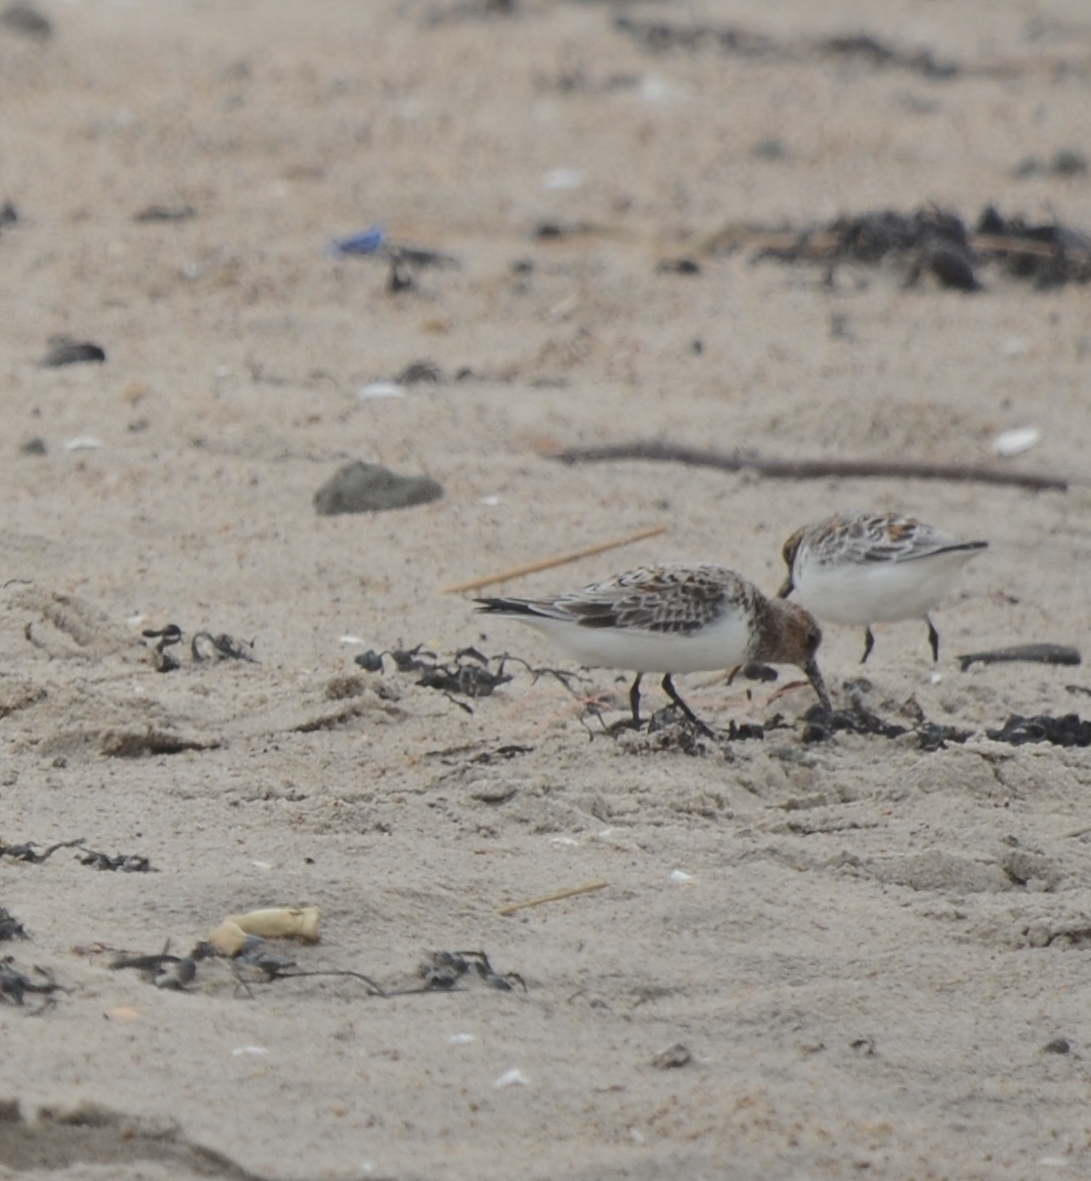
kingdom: Animalia
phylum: Chordata
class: Aves
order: Charadriiformes
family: Scolopacidae
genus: Calidris
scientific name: Calidris alba
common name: Sanderling
